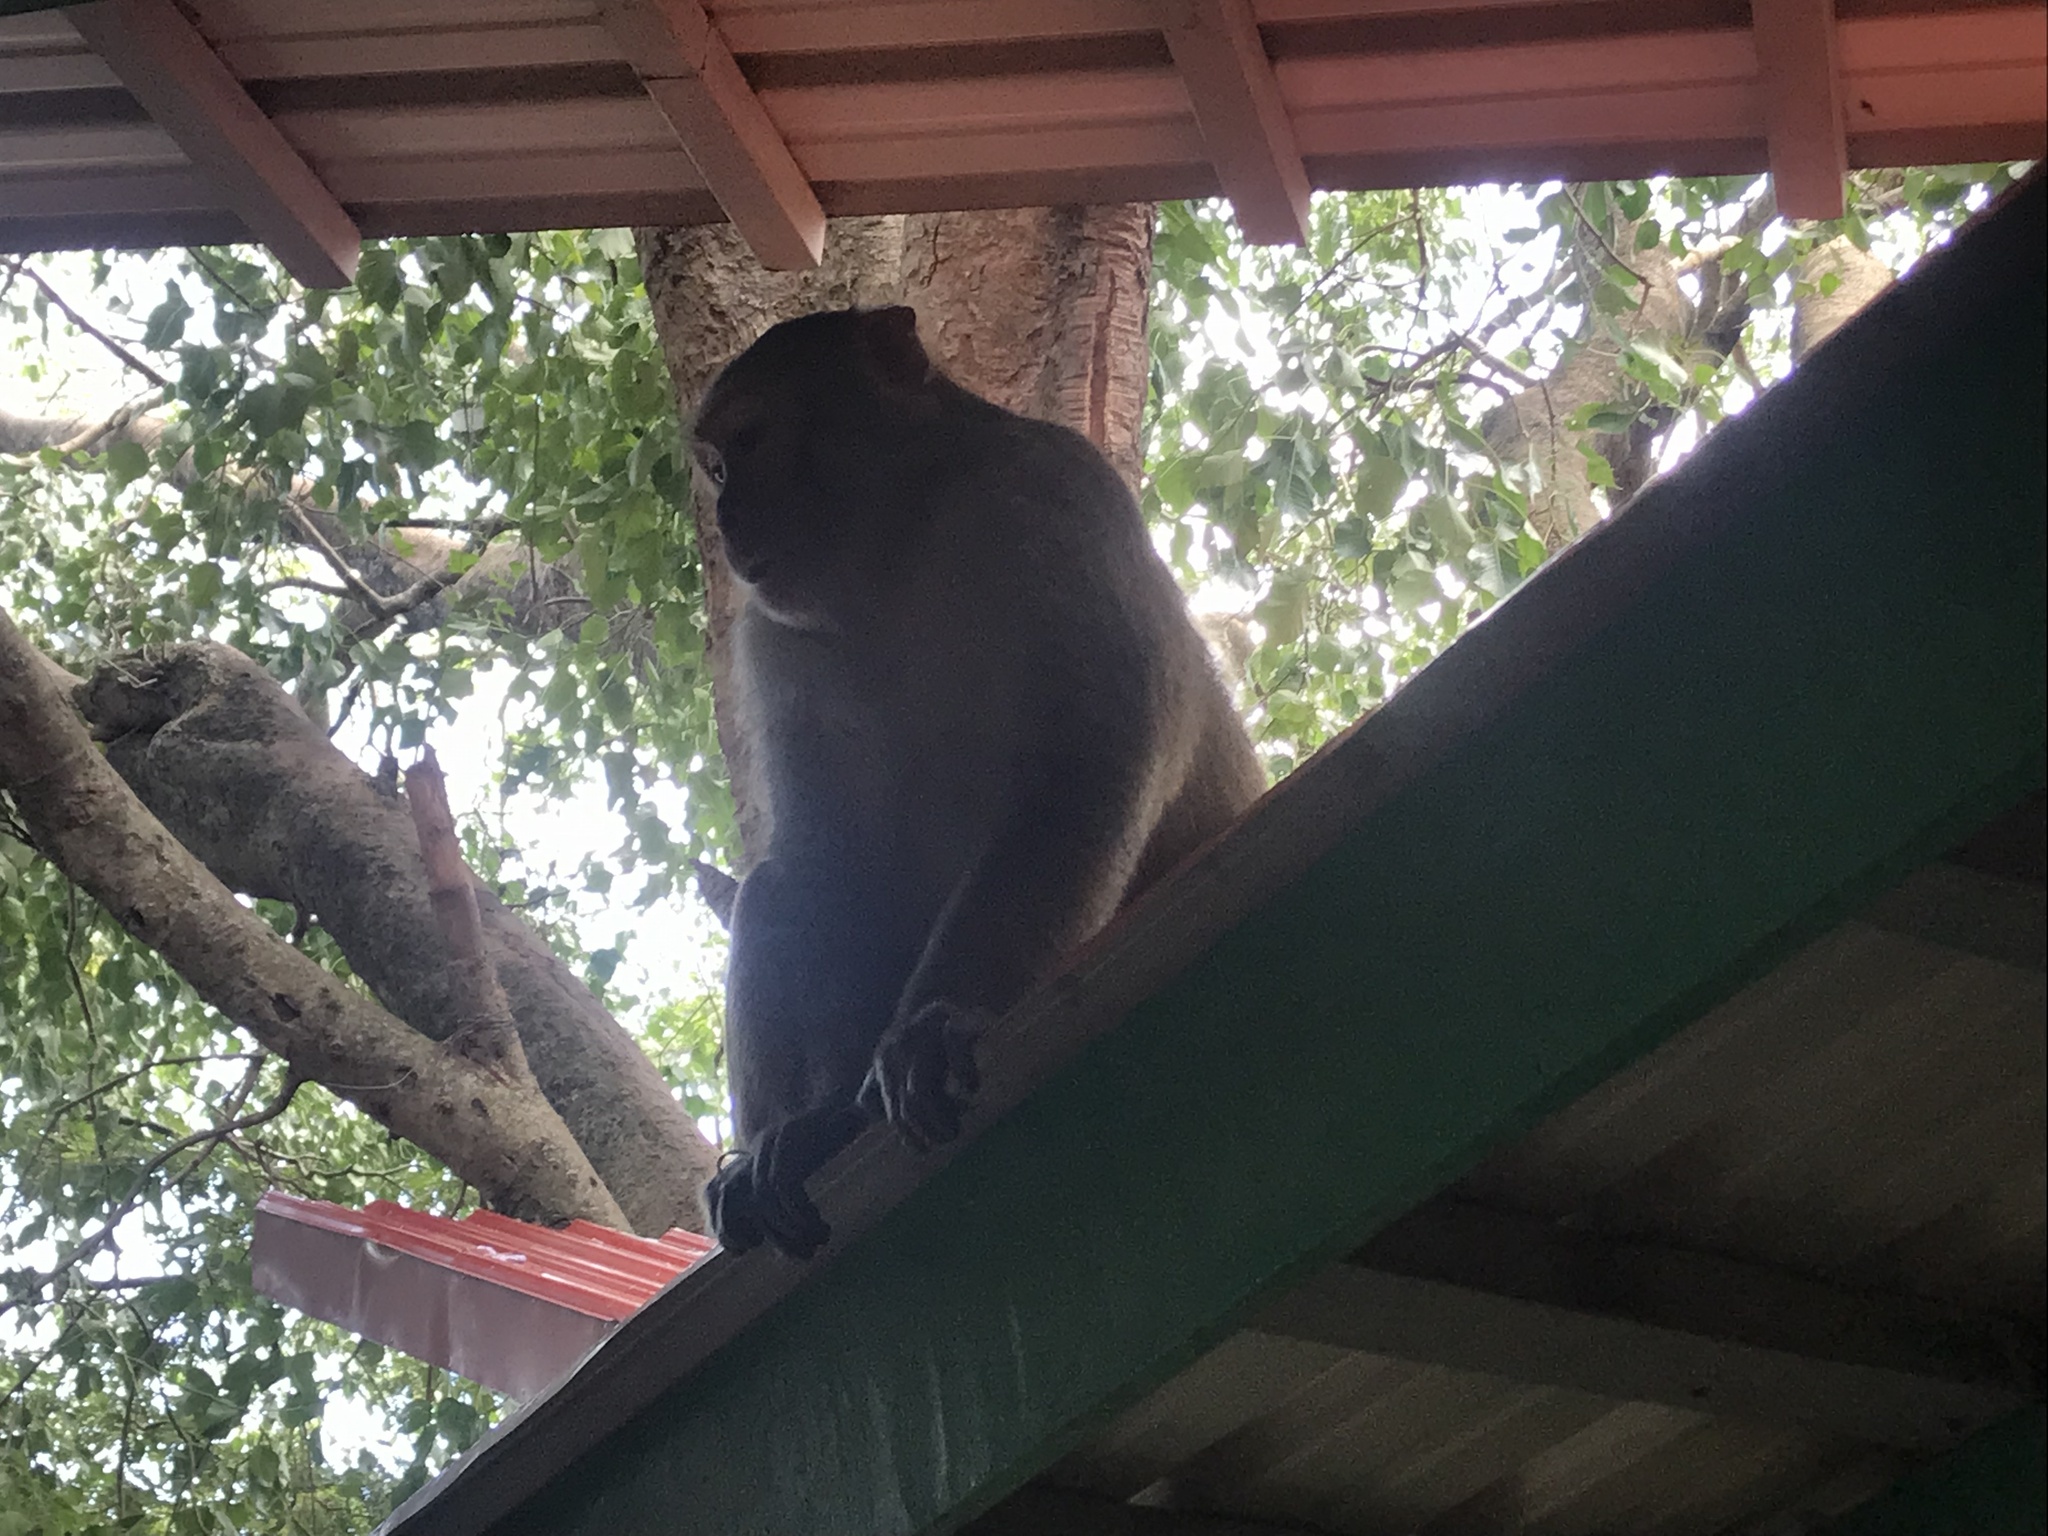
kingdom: Animalia
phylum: Chordata
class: Mammalia
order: Primates
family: Cercopithecidae
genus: Macaca
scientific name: Macaca mulatta
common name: Rhesus monkey
